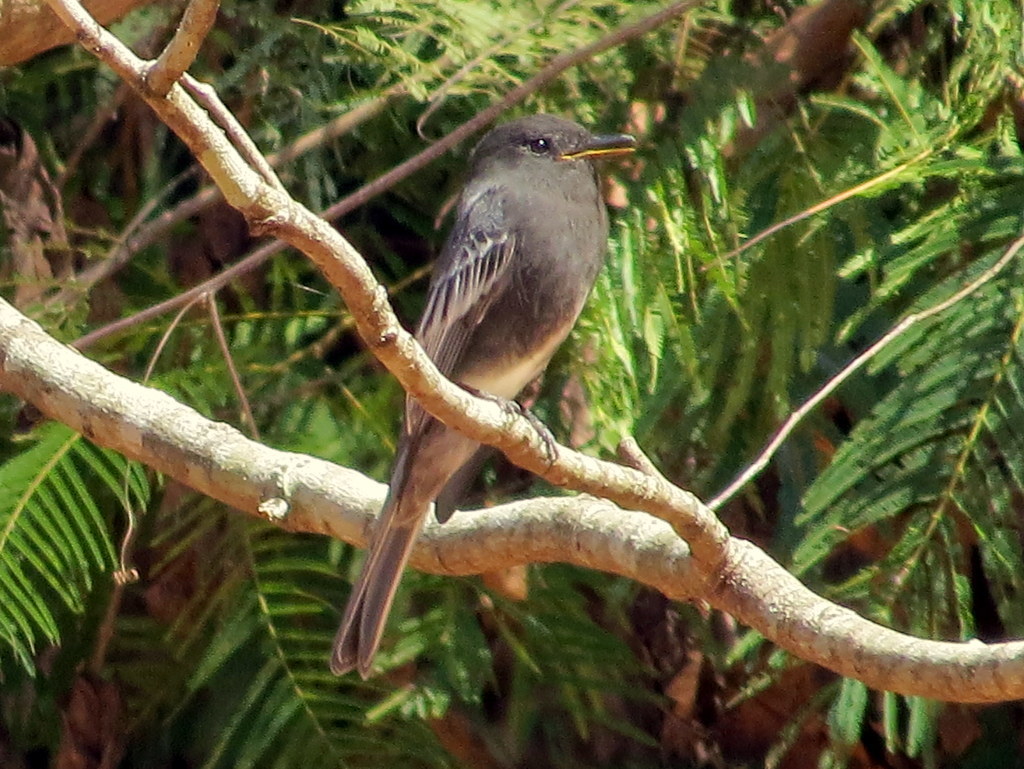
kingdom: Animalia
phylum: Chordata
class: Aves
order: Passeriformes
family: Tyrannidae
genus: Sayornis
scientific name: Sayornis nigricans
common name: Black phoebe
